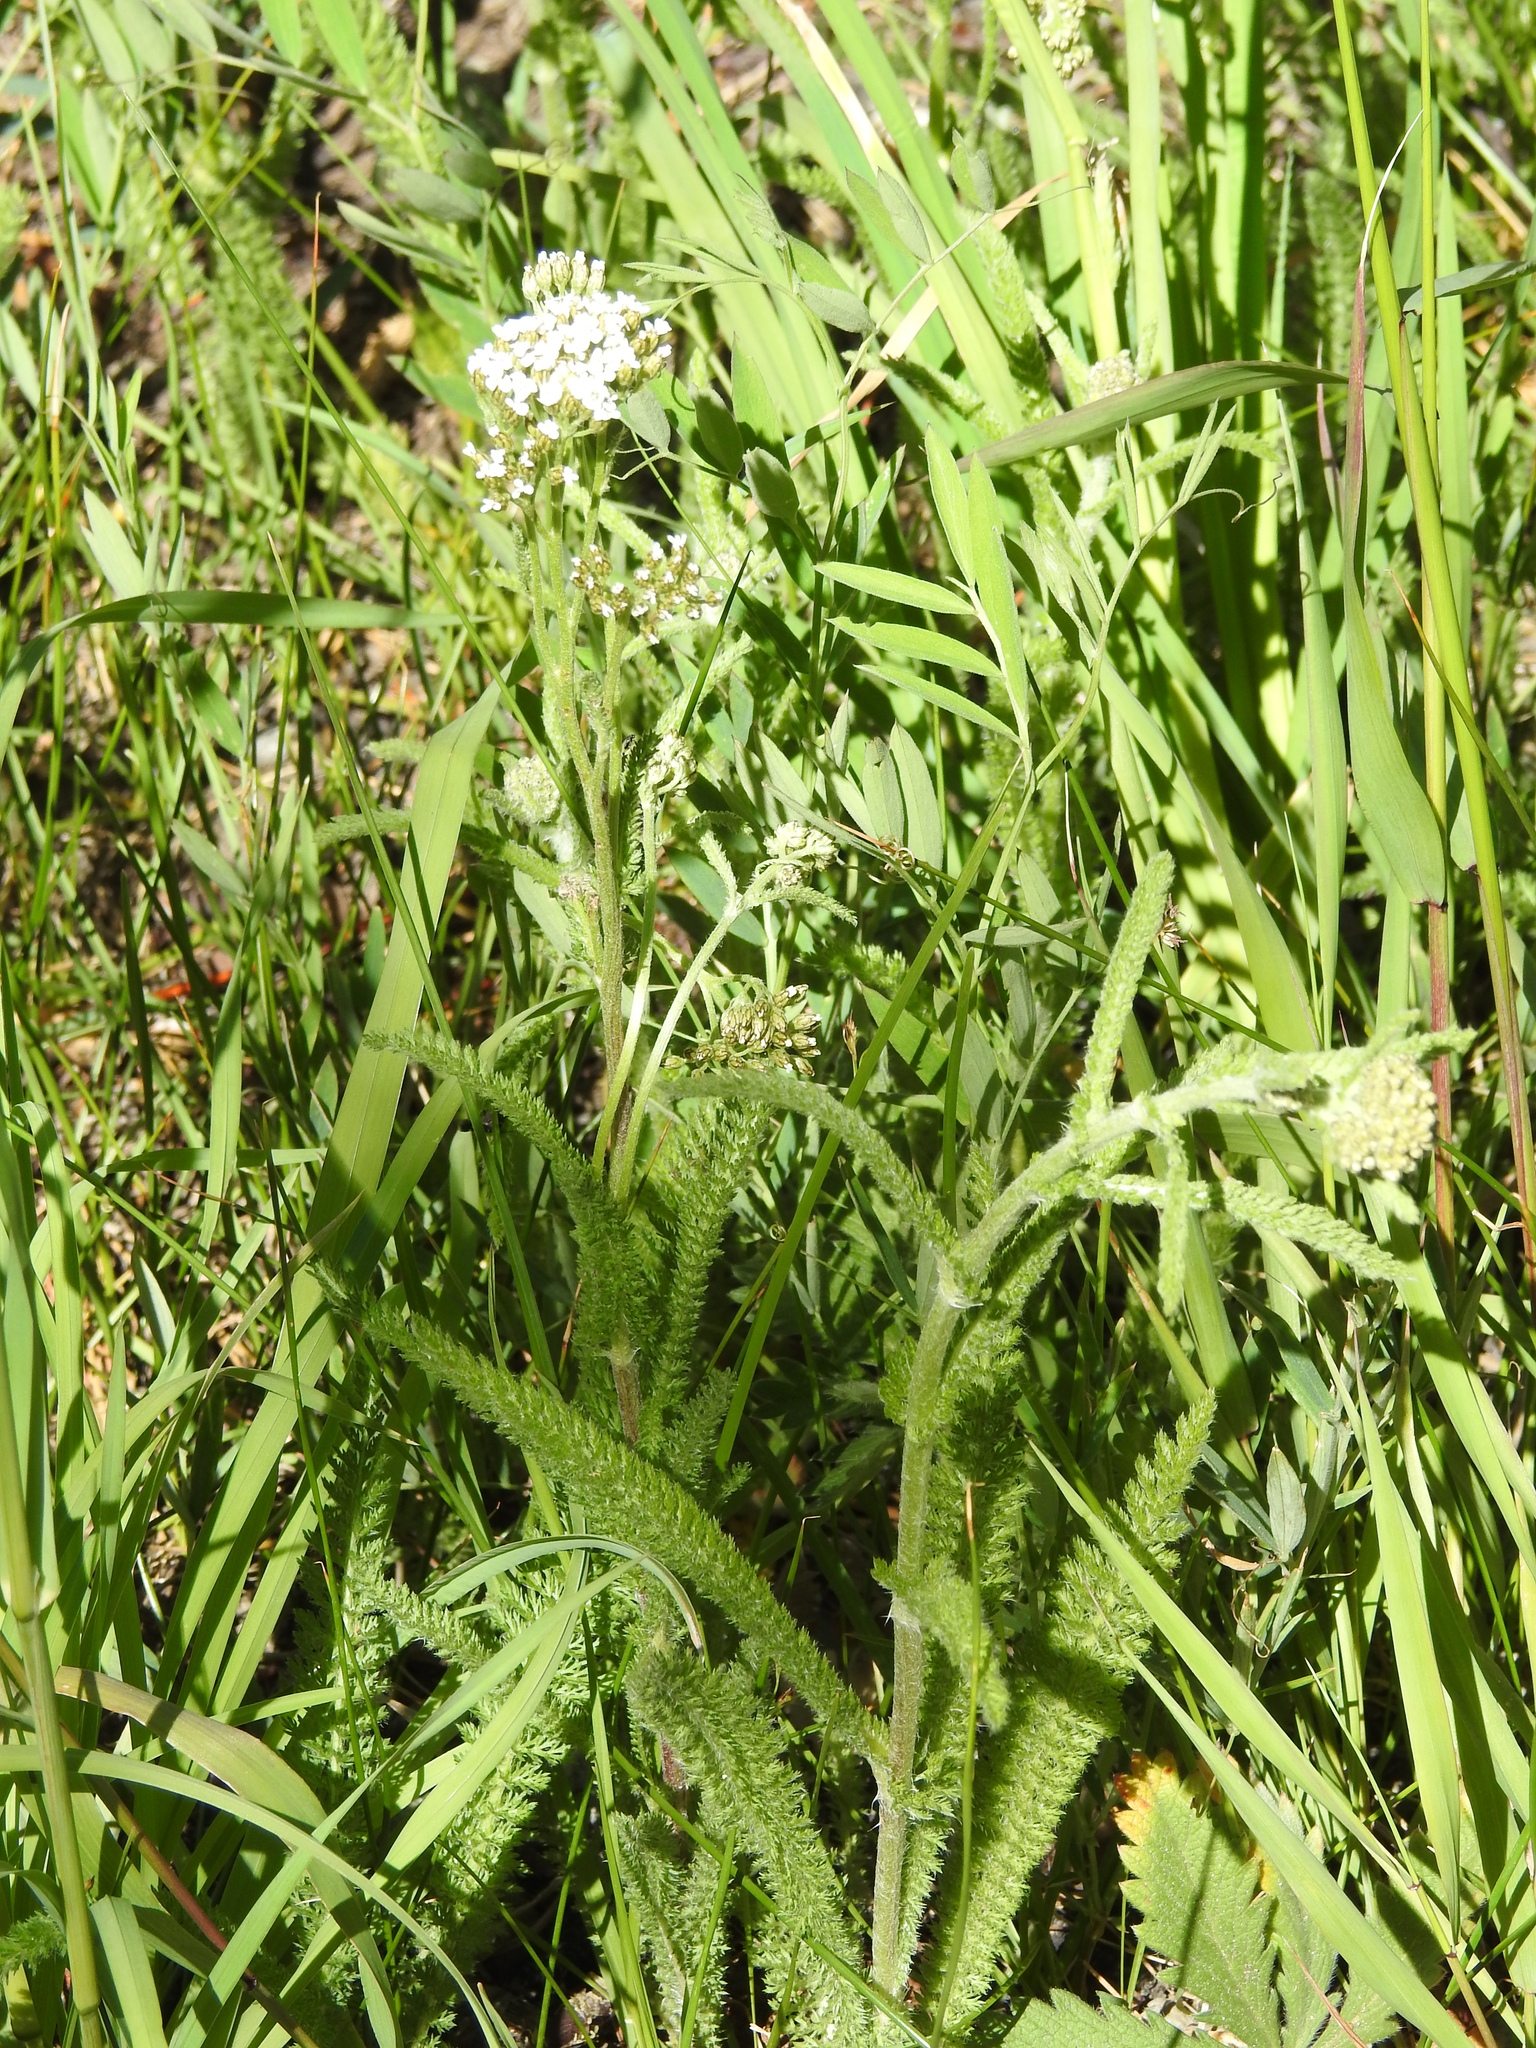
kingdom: Plantae
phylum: Tracheophyta
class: Magnoliopsida
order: Asterales
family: Asteraceae
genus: Achillea
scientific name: Achillea millefolium
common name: Yarrow
